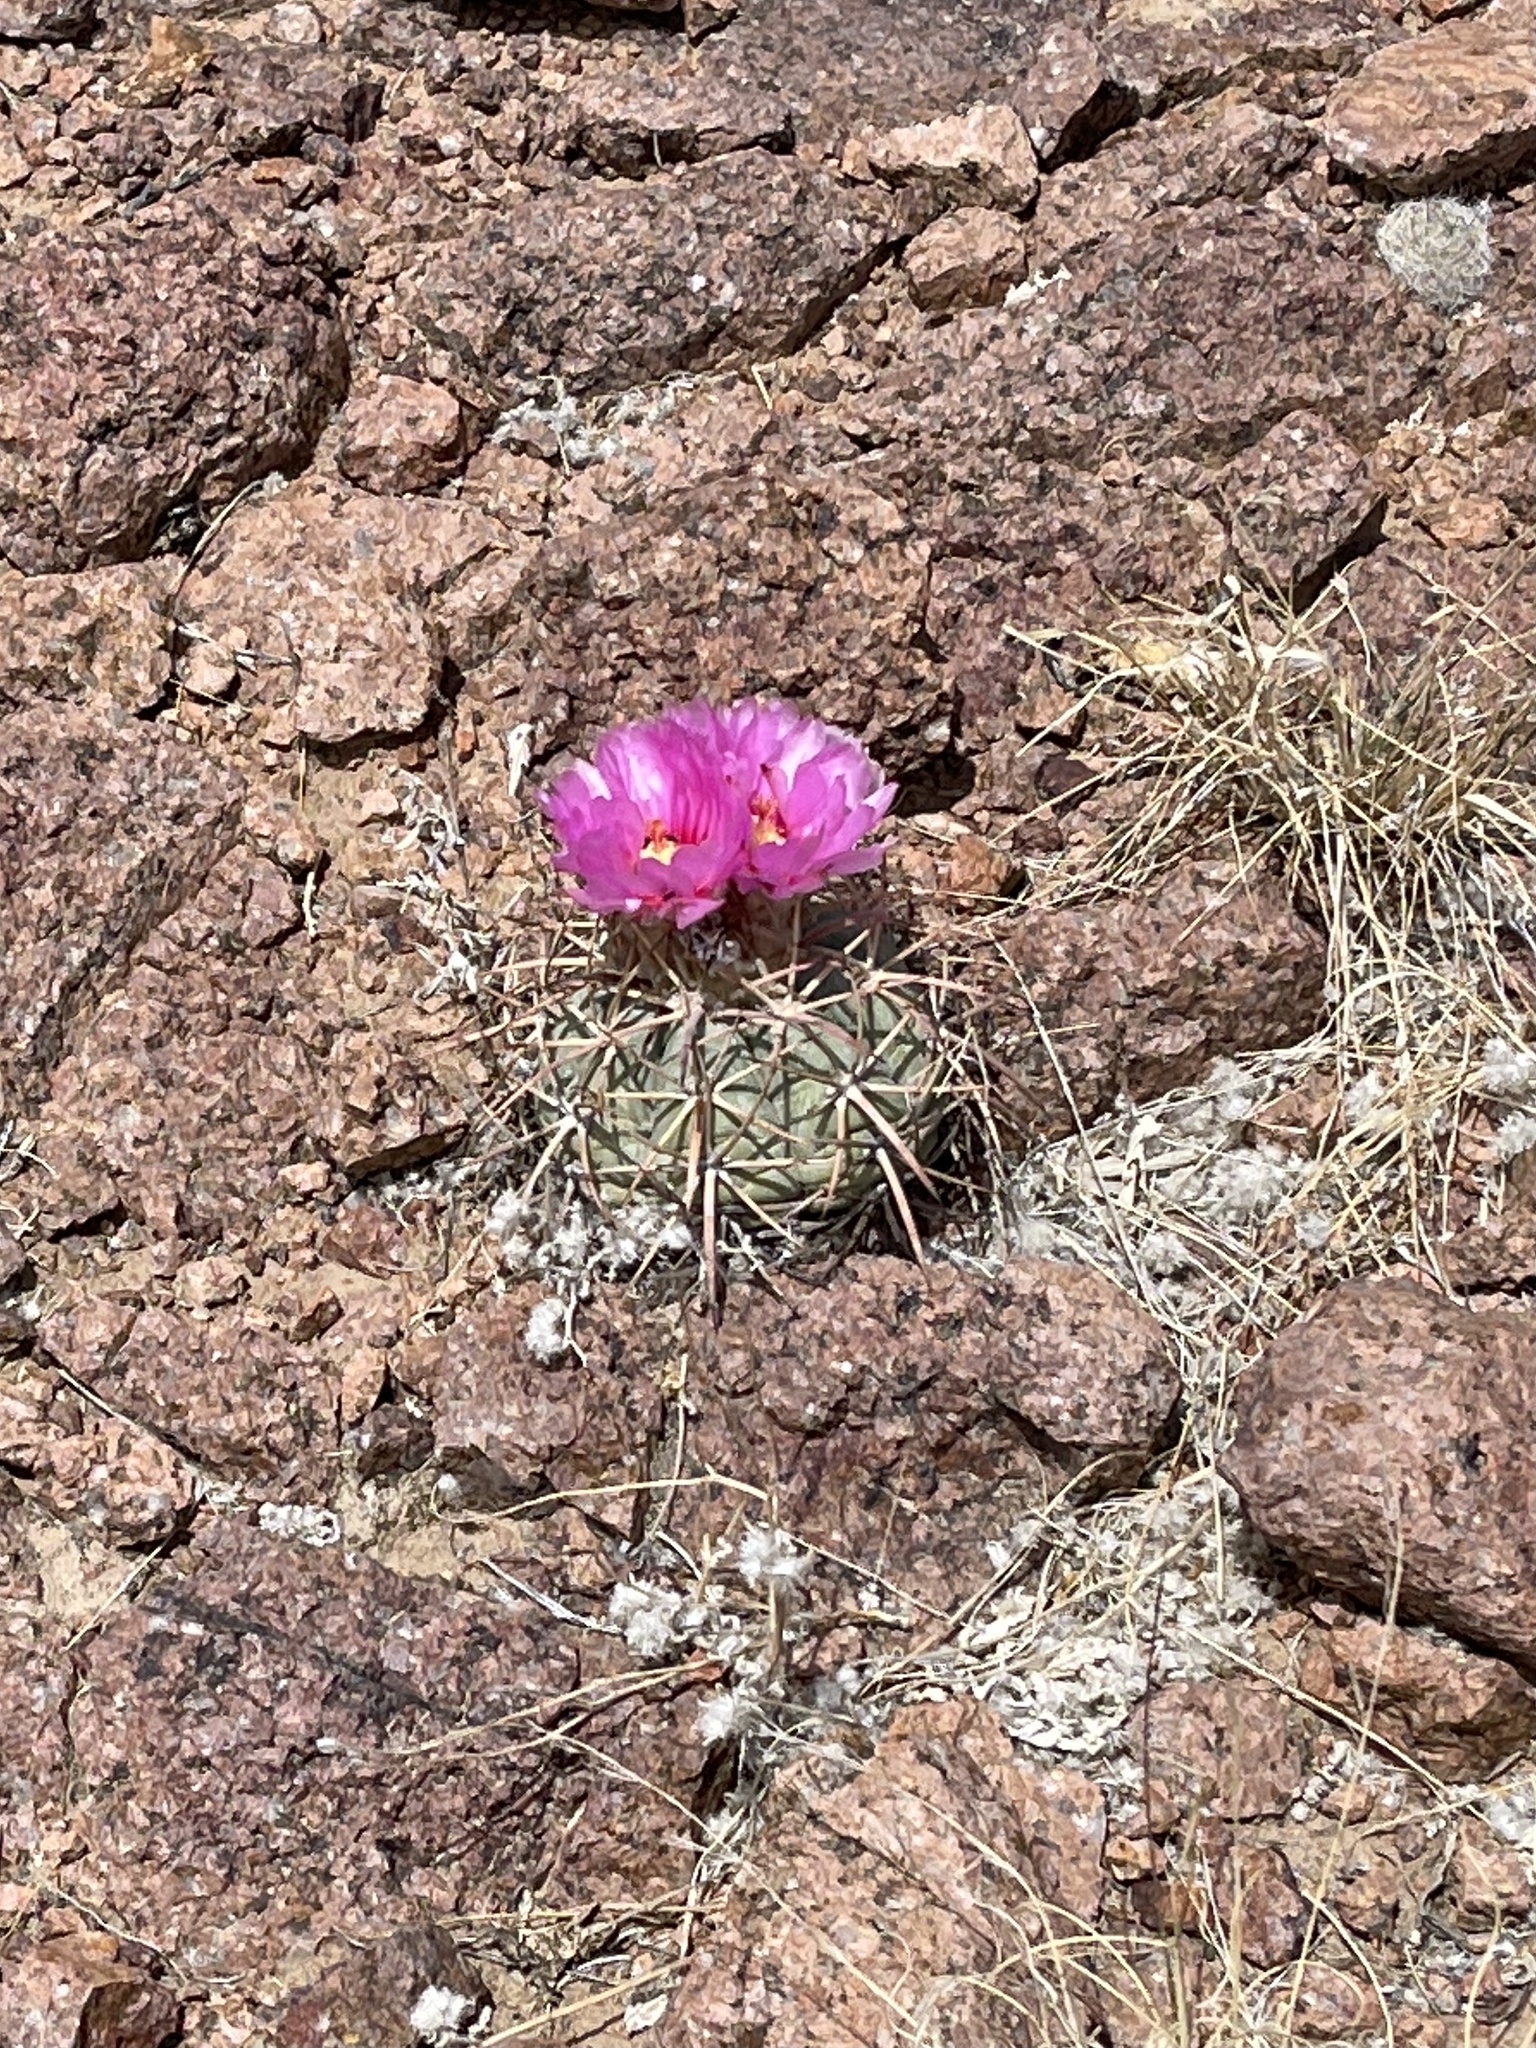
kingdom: Plantae
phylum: Tracheophyta
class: Magnoliopsida
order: Caryophyllales
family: Cactaceae
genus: Echinocactus
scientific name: Echinocactus horizonthalonius
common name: Devilshead
